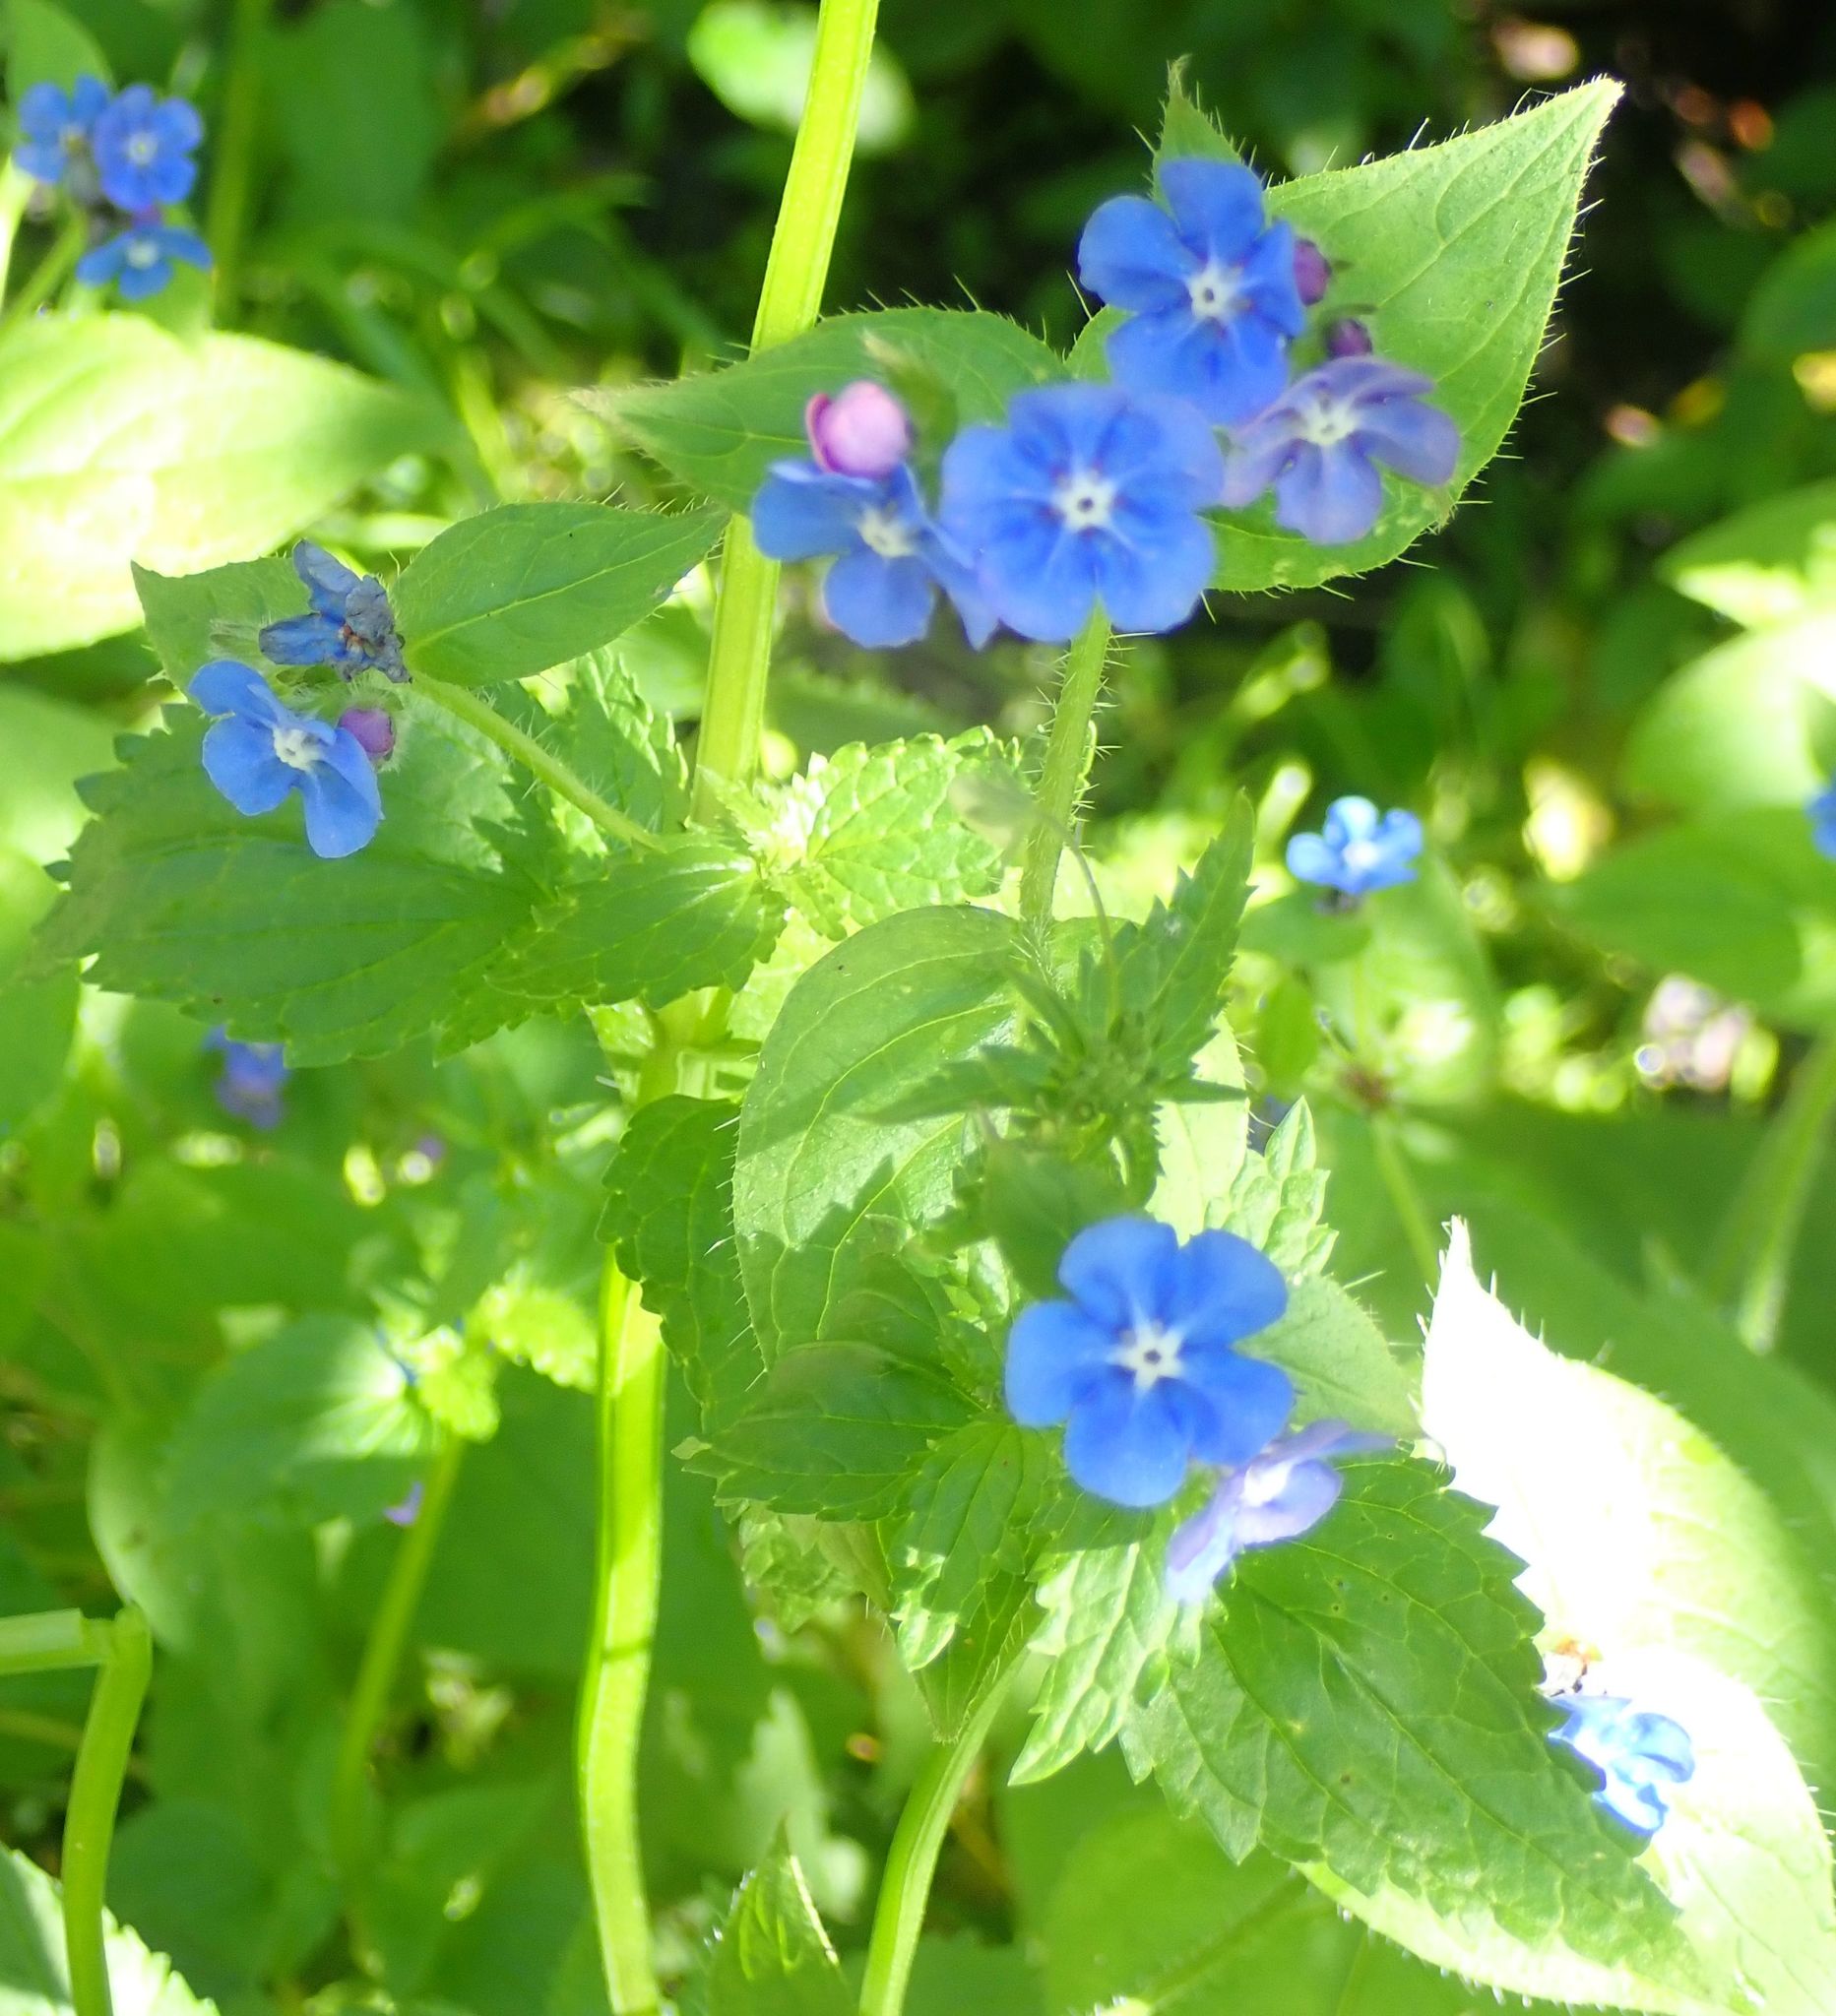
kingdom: Plantae
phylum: Tracheophyta
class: Magnoliopsida
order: Boraginales
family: Boraginaceae
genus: Pentaglottis
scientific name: Pentaglottis sempervirens
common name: Green alkanet
